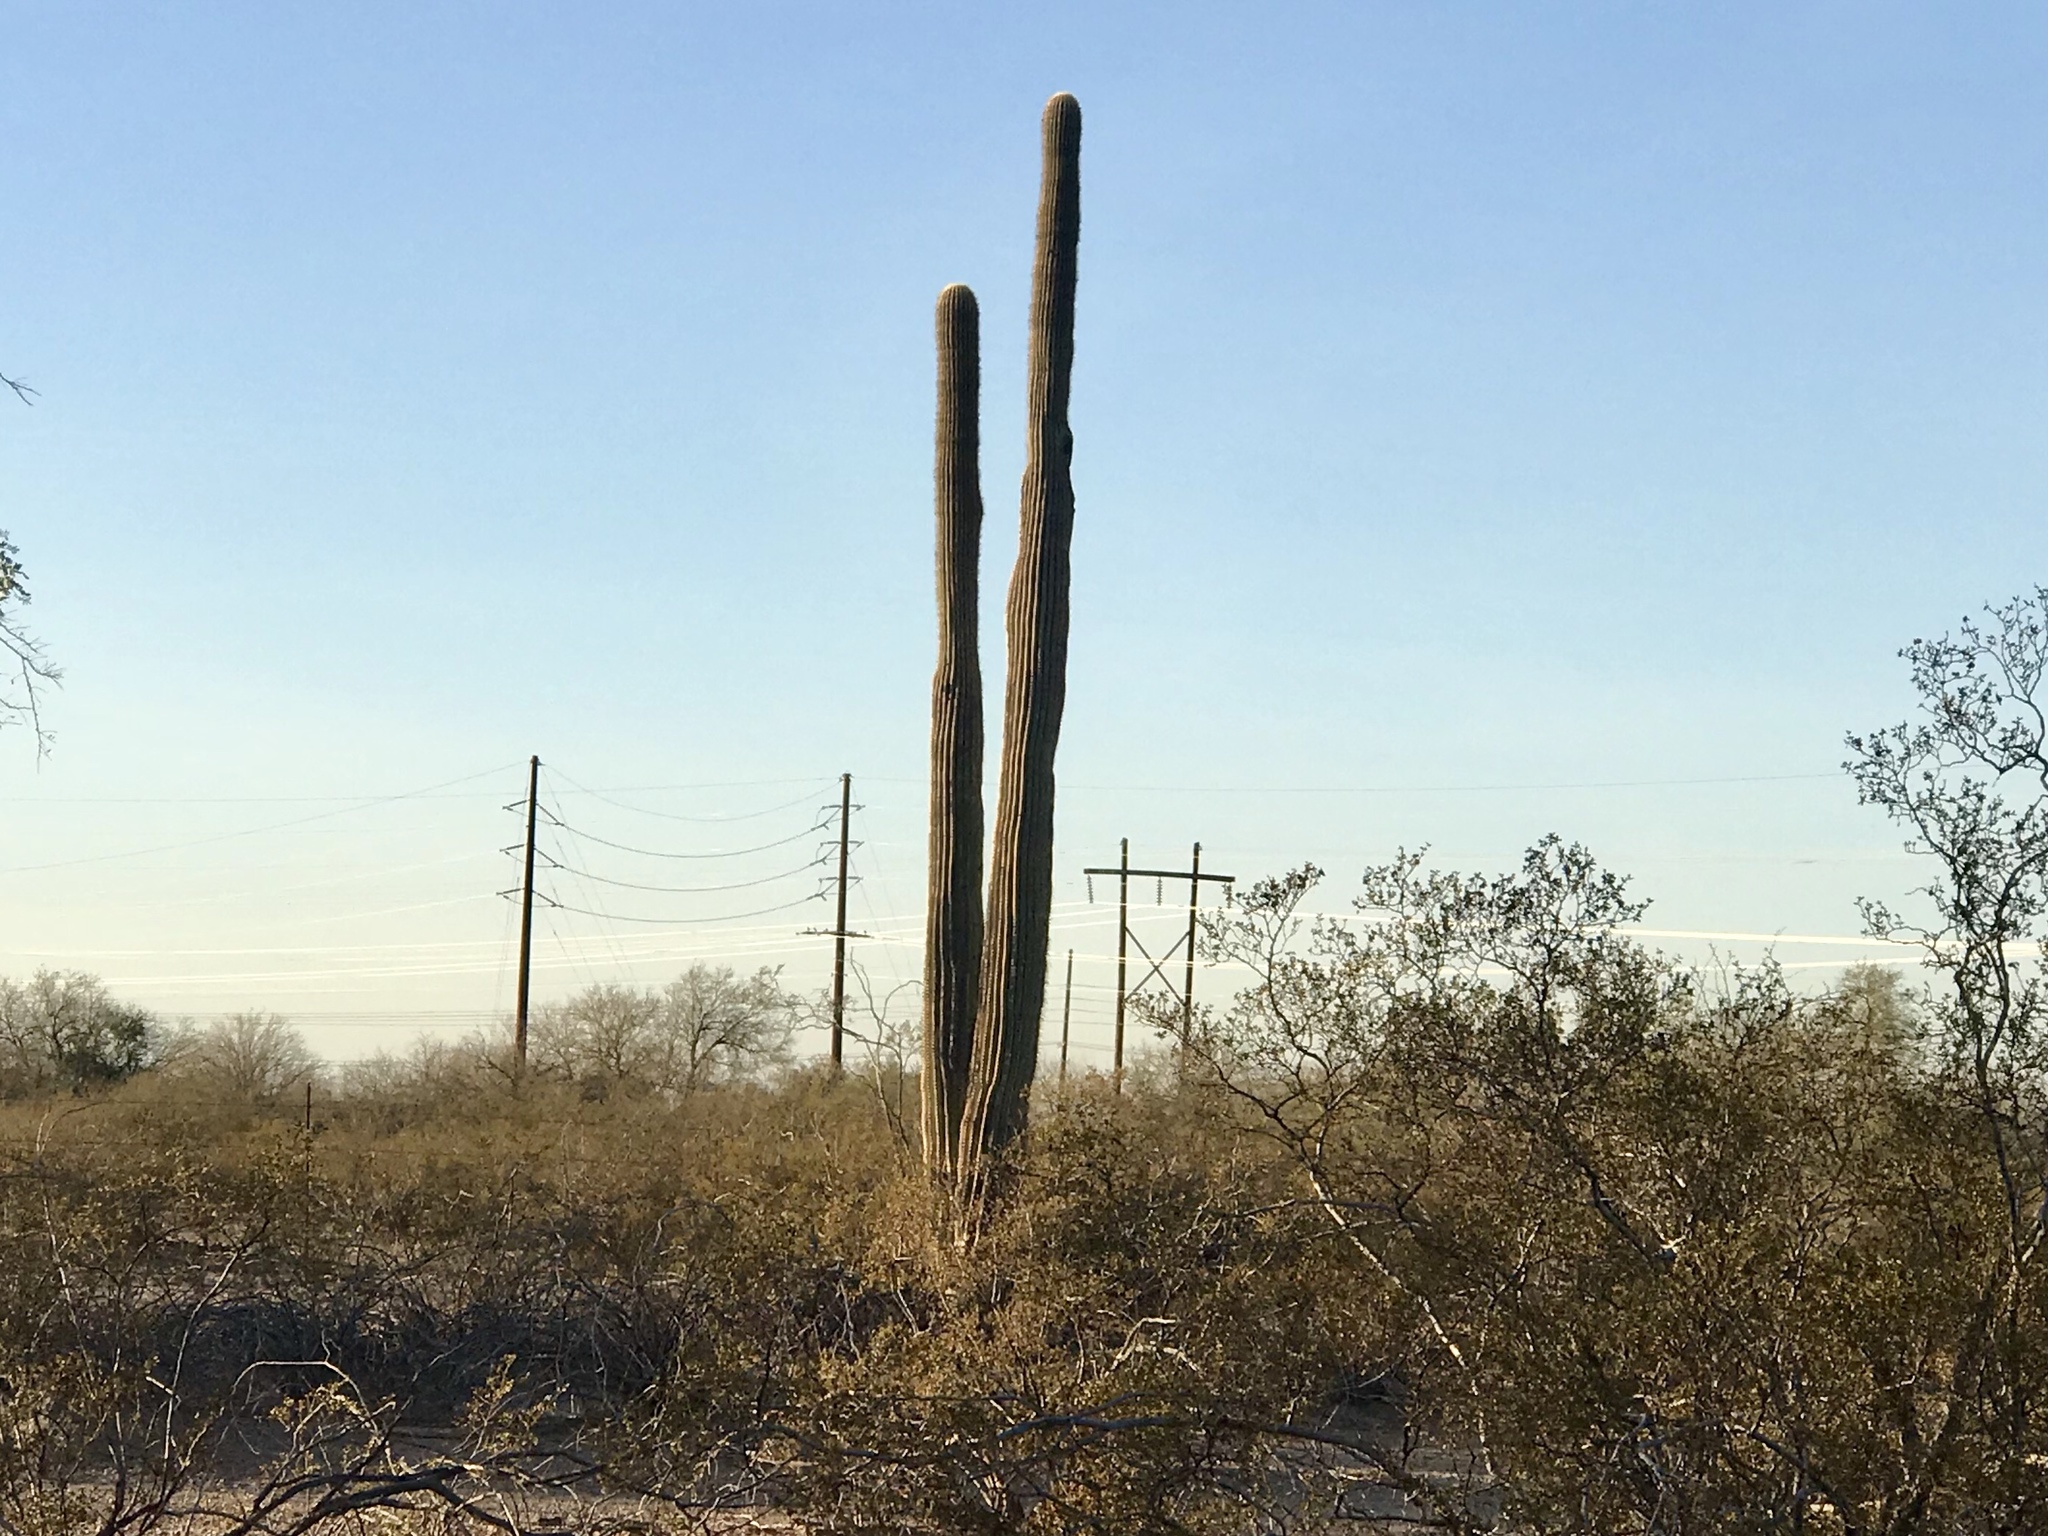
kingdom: Plantae
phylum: Tracheophyta
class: Magnoliopsida
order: Caryophyllales
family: Cactaceae
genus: Carnegiea
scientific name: Carnegiea gigantea
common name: Saguaro
